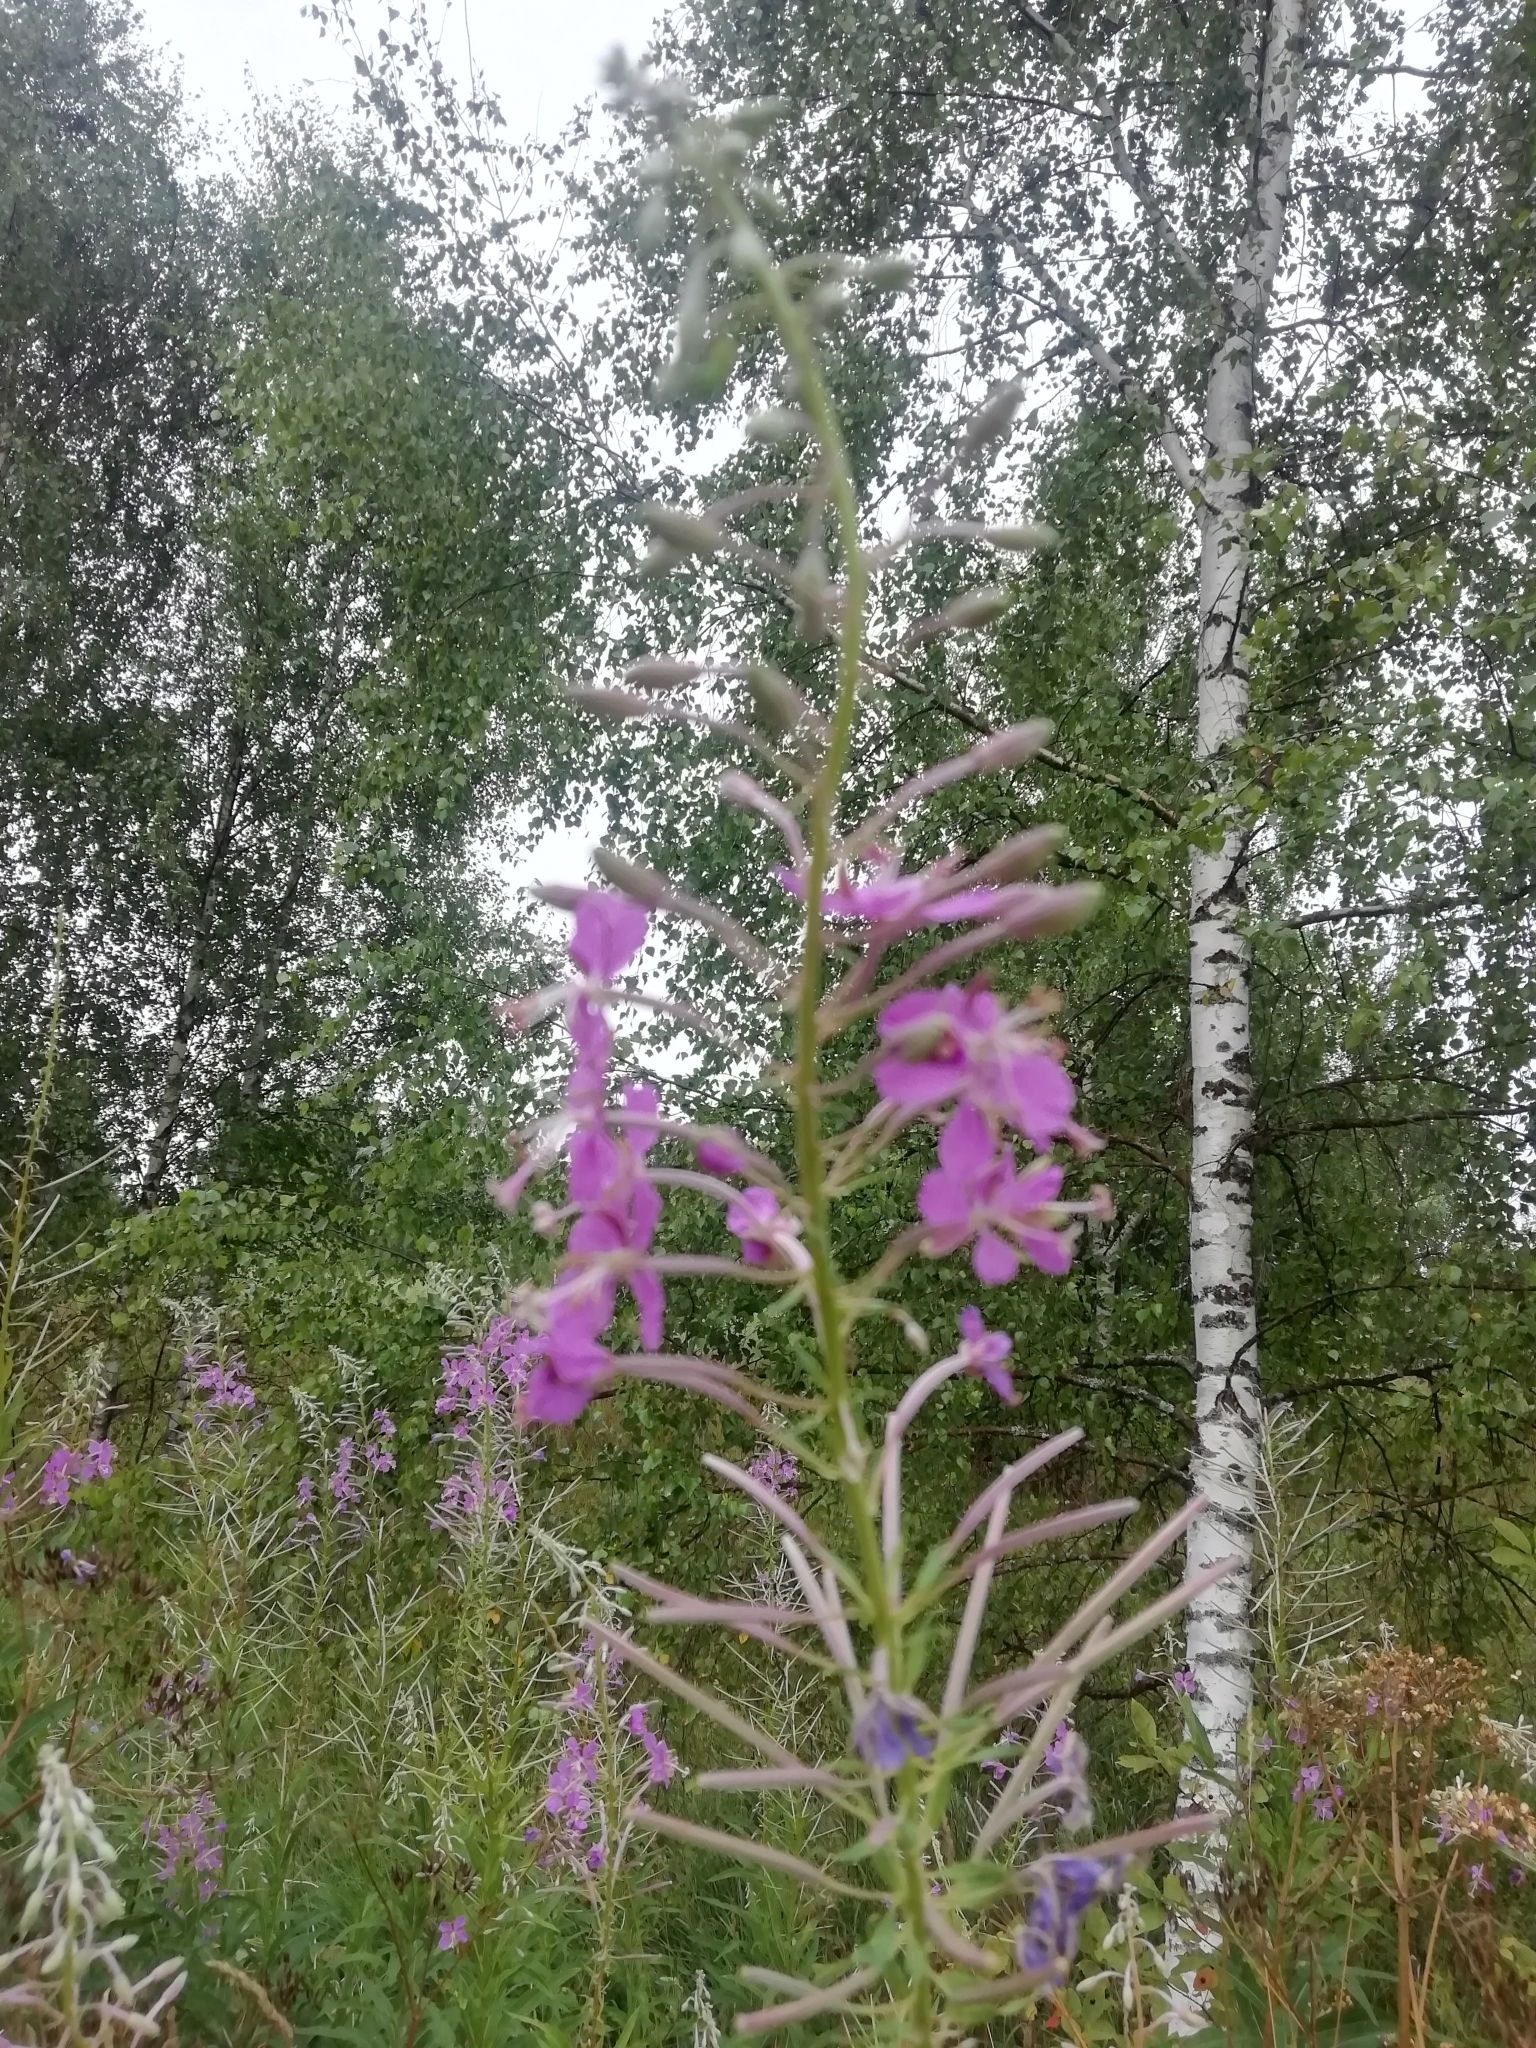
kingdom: Plantae
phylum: Tracheophyta
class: Magnoliopsida
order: Myrtales
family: Onagraceae
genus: Chamaenerion
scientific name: Chamaenerion angustifolium
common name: Fireweed
